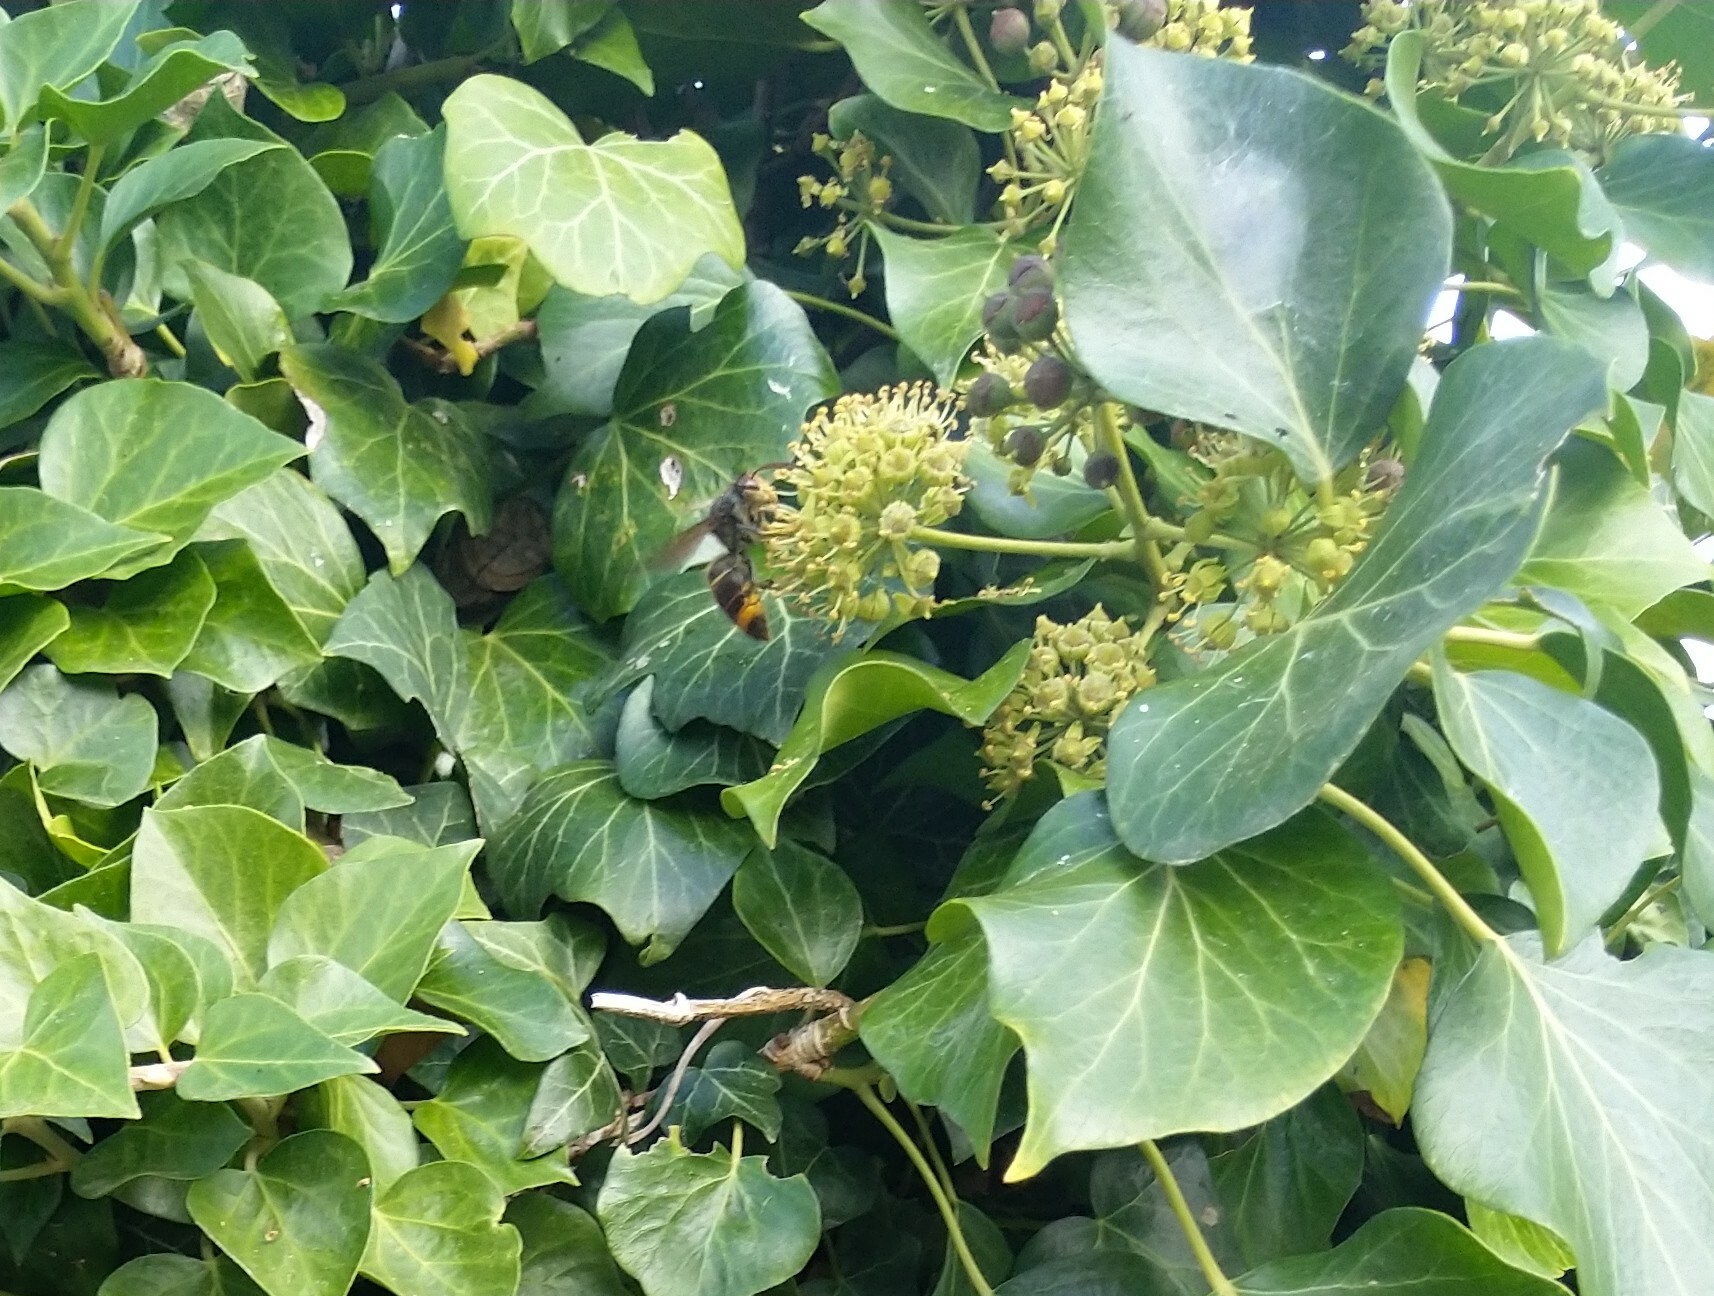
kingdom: Animalia
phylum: Arthropoda
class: Insecta
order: Hymenoptera
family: Vespidae
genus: Vespa
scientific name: Vespa velutina
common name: Asian hornet
